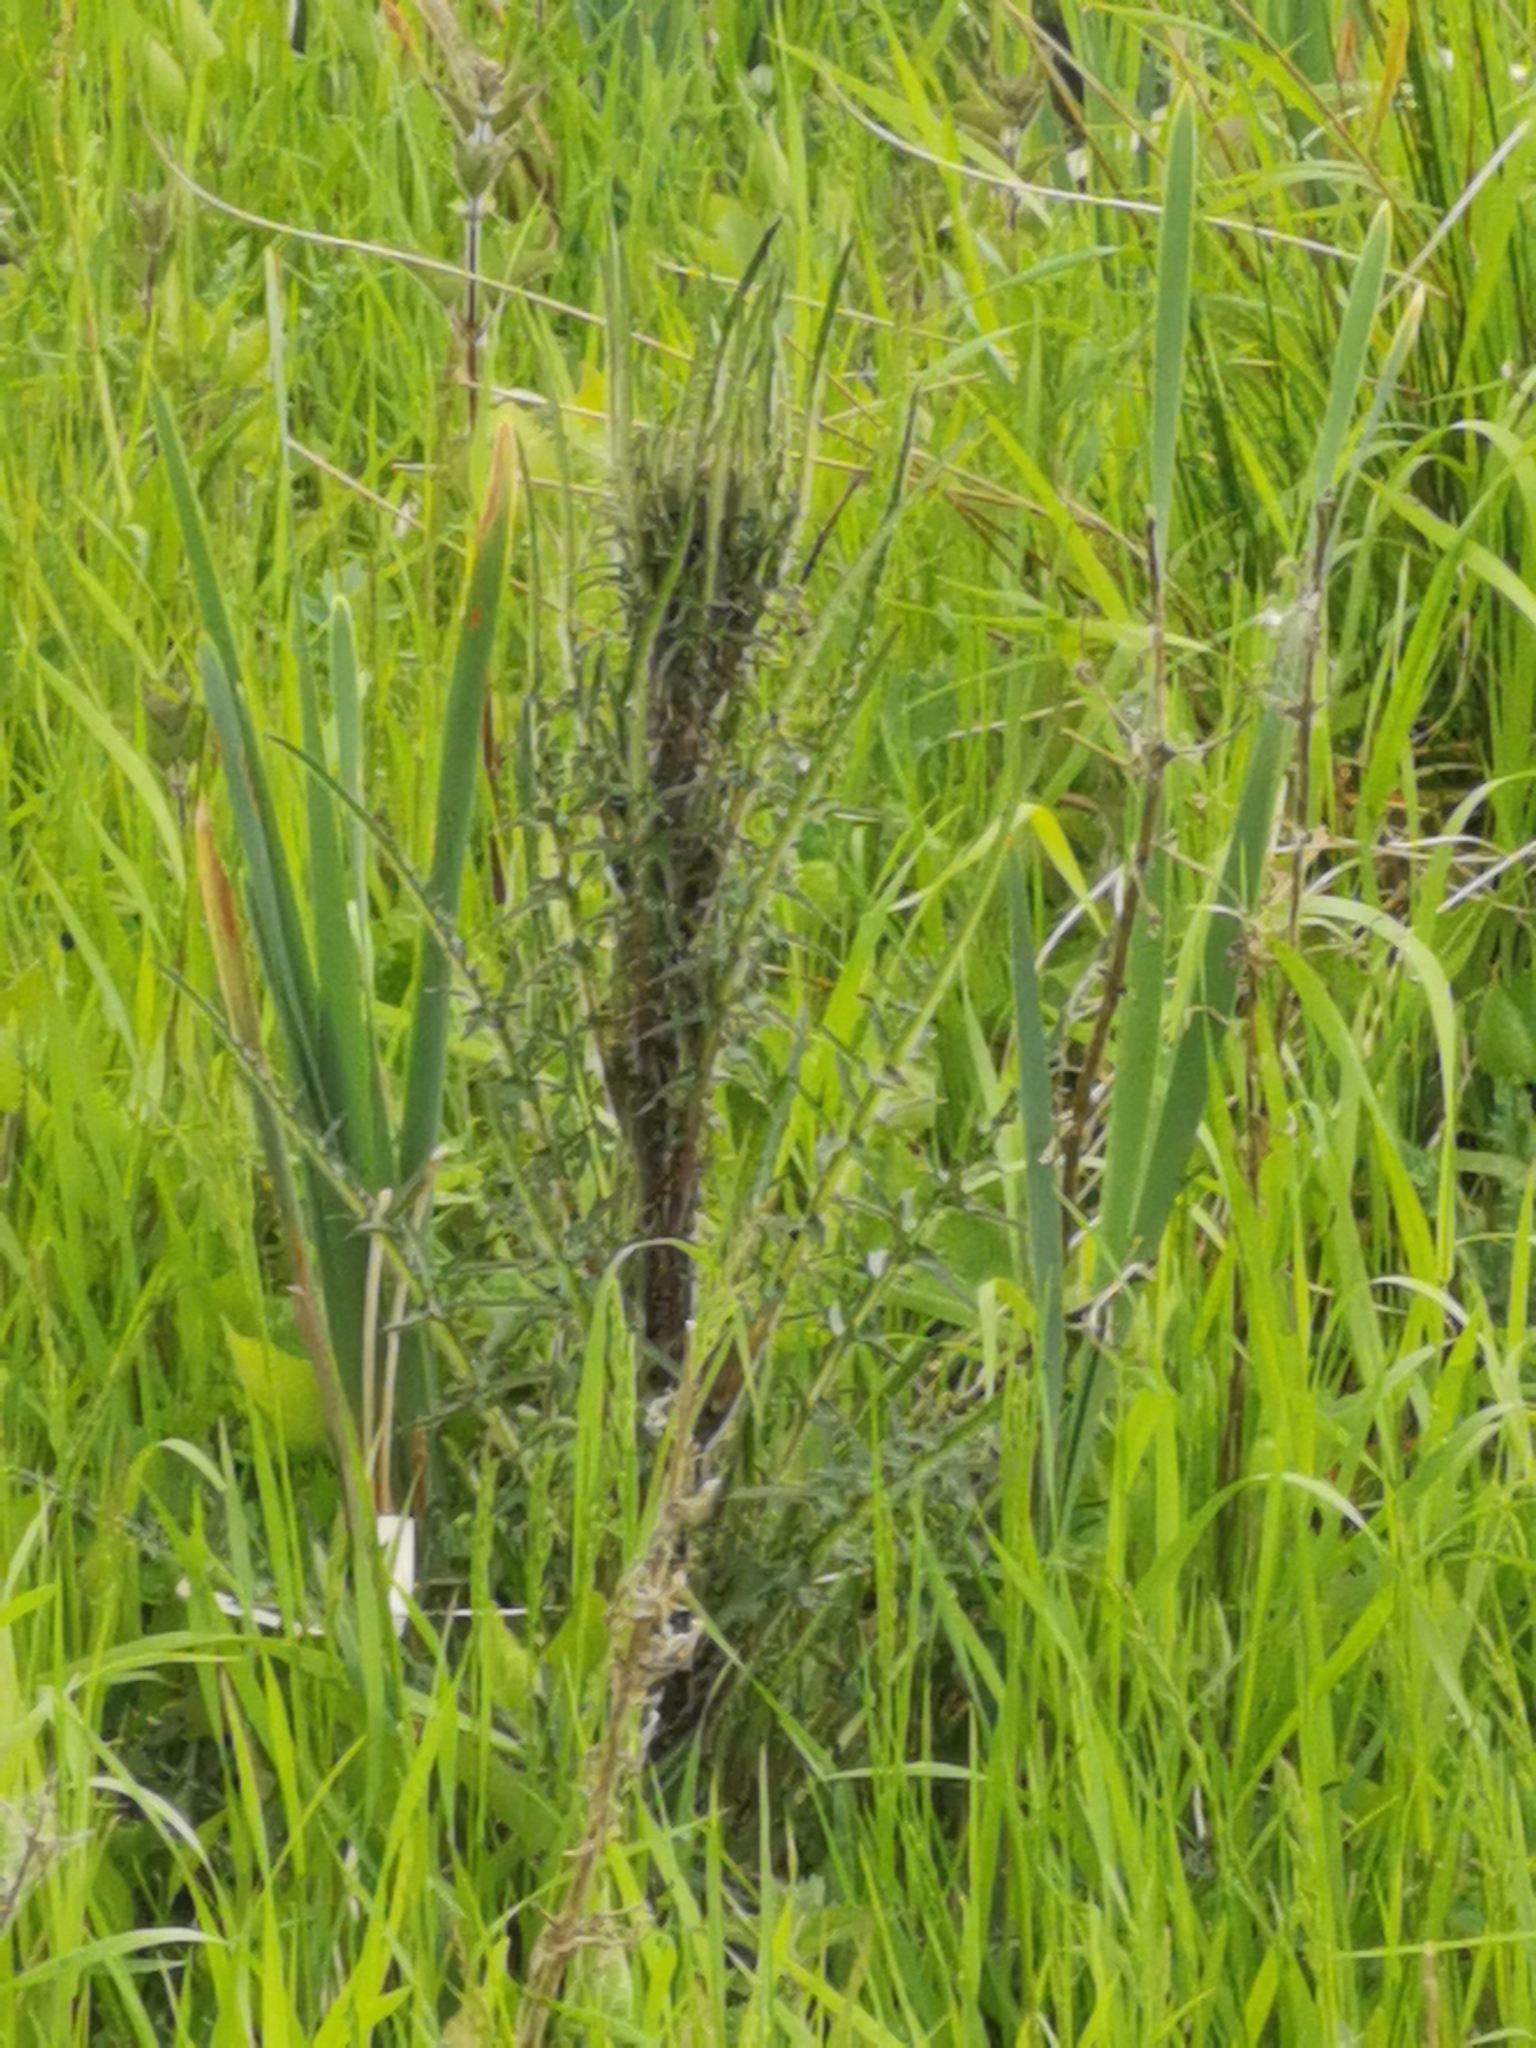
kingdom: Plantae
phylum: Tracheophyta
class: Magnoliopsida
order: Asterales
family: Asteraceae
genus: Cirsium
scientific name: Cirsium palustre
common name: Marsh thistle
